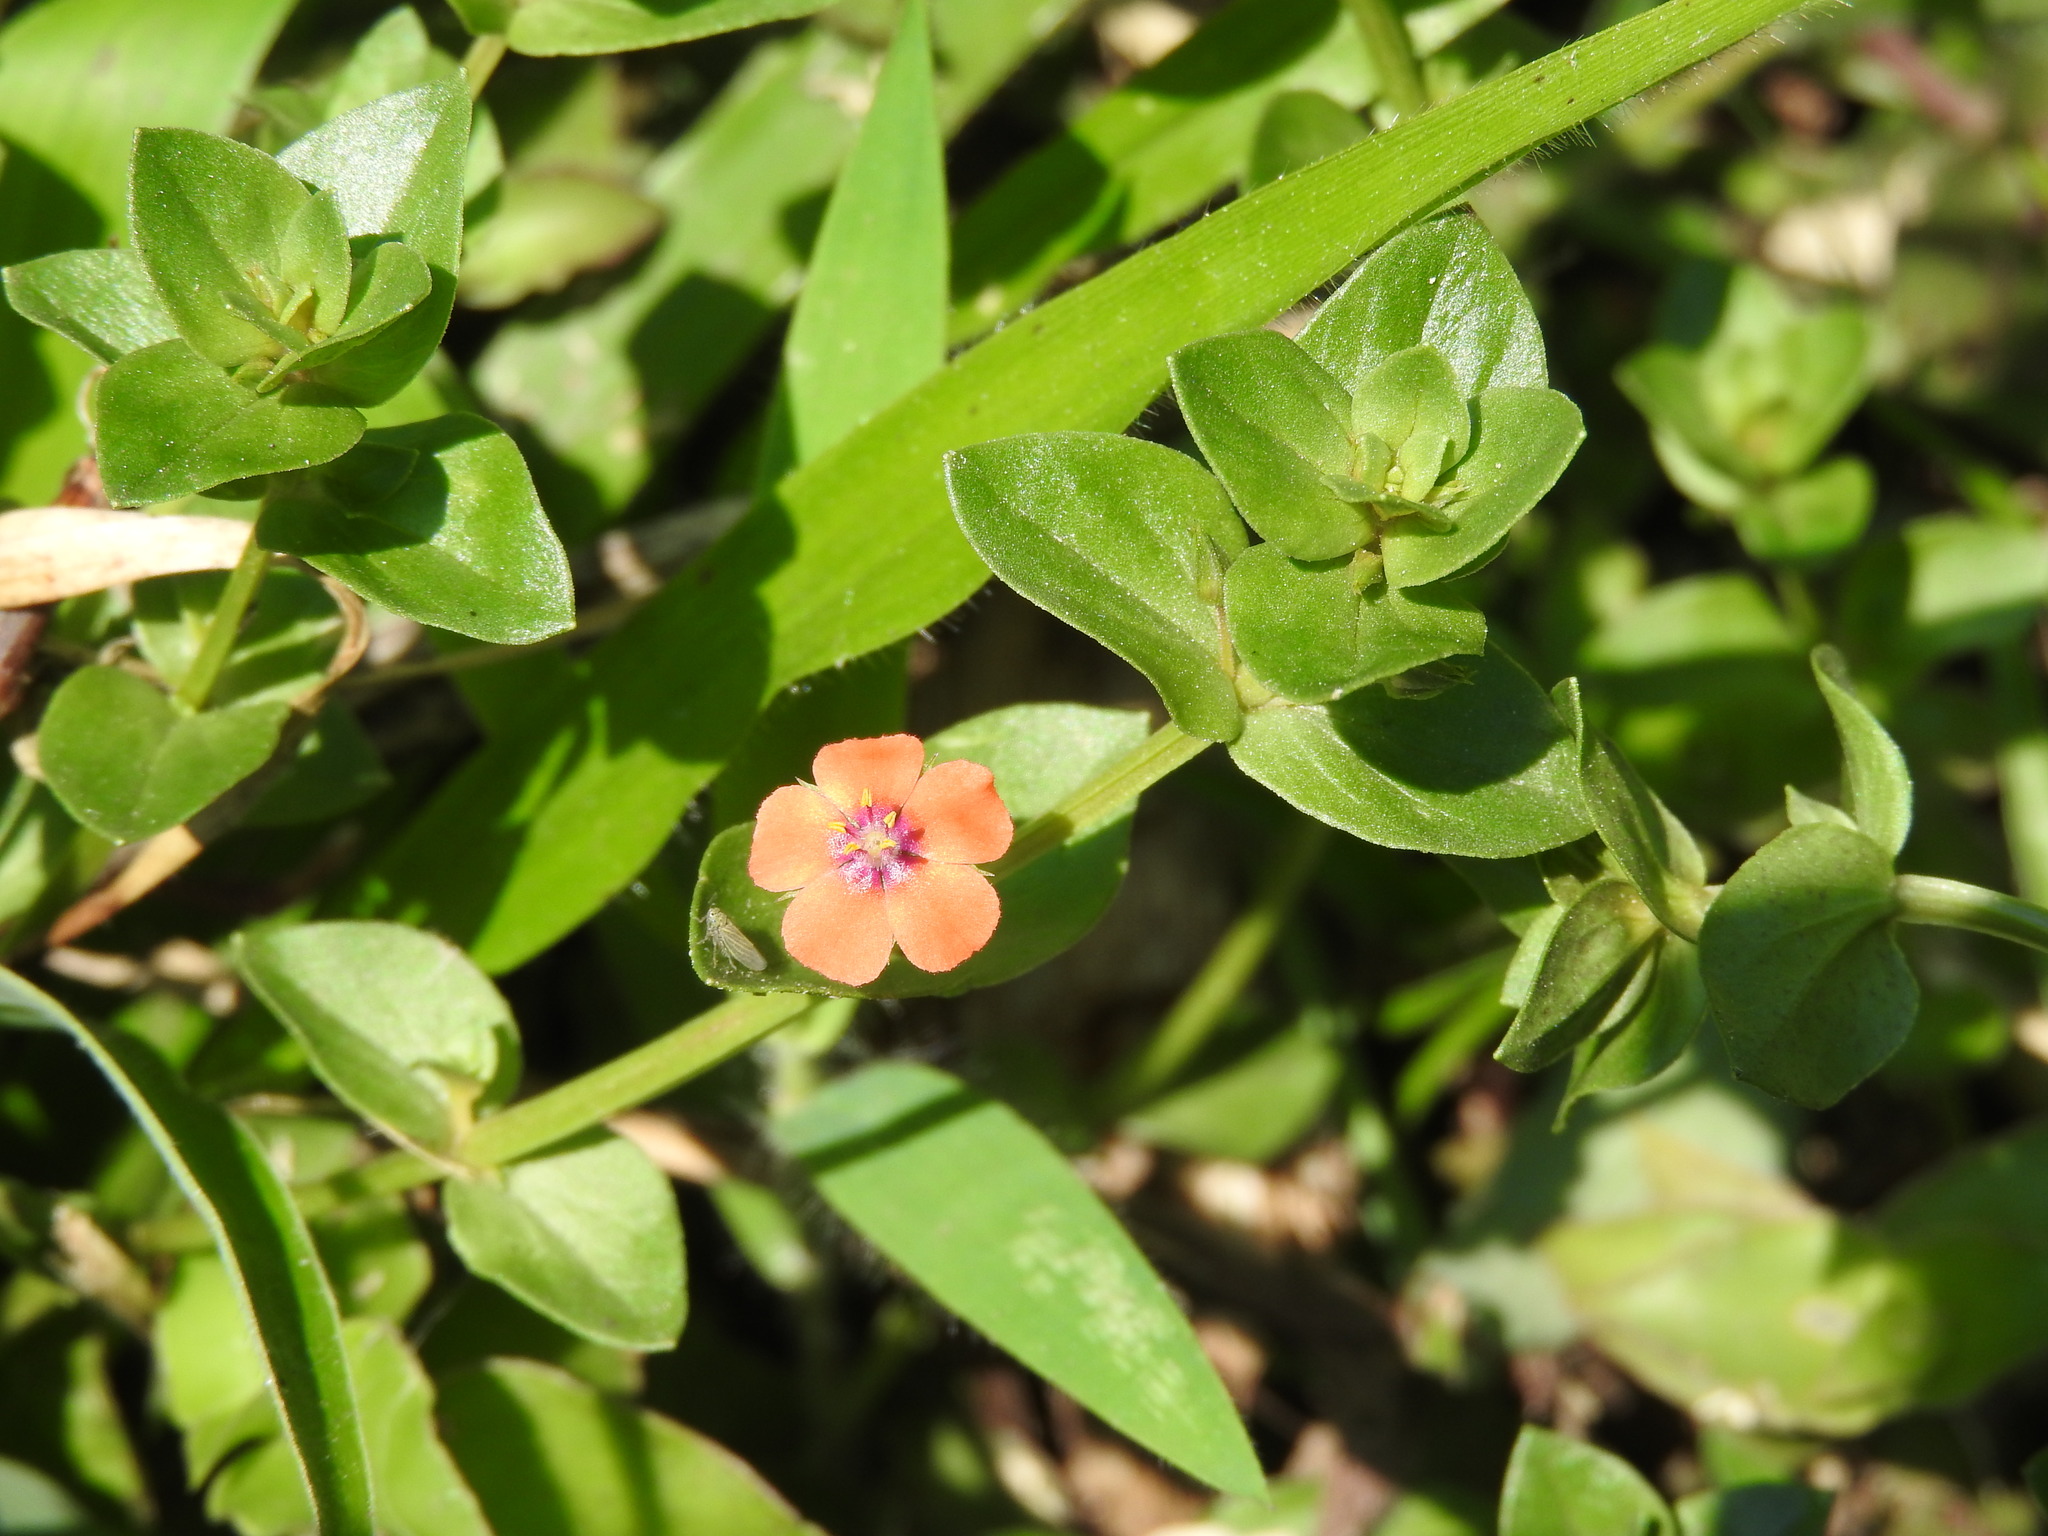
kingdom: Plantae
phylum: Tracheophyta
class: Magnoliopsida
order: Ericales
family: Primulaceae
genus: Lysimachia
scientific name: Lysimachia arvensis
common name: Scarlet pimpernel
